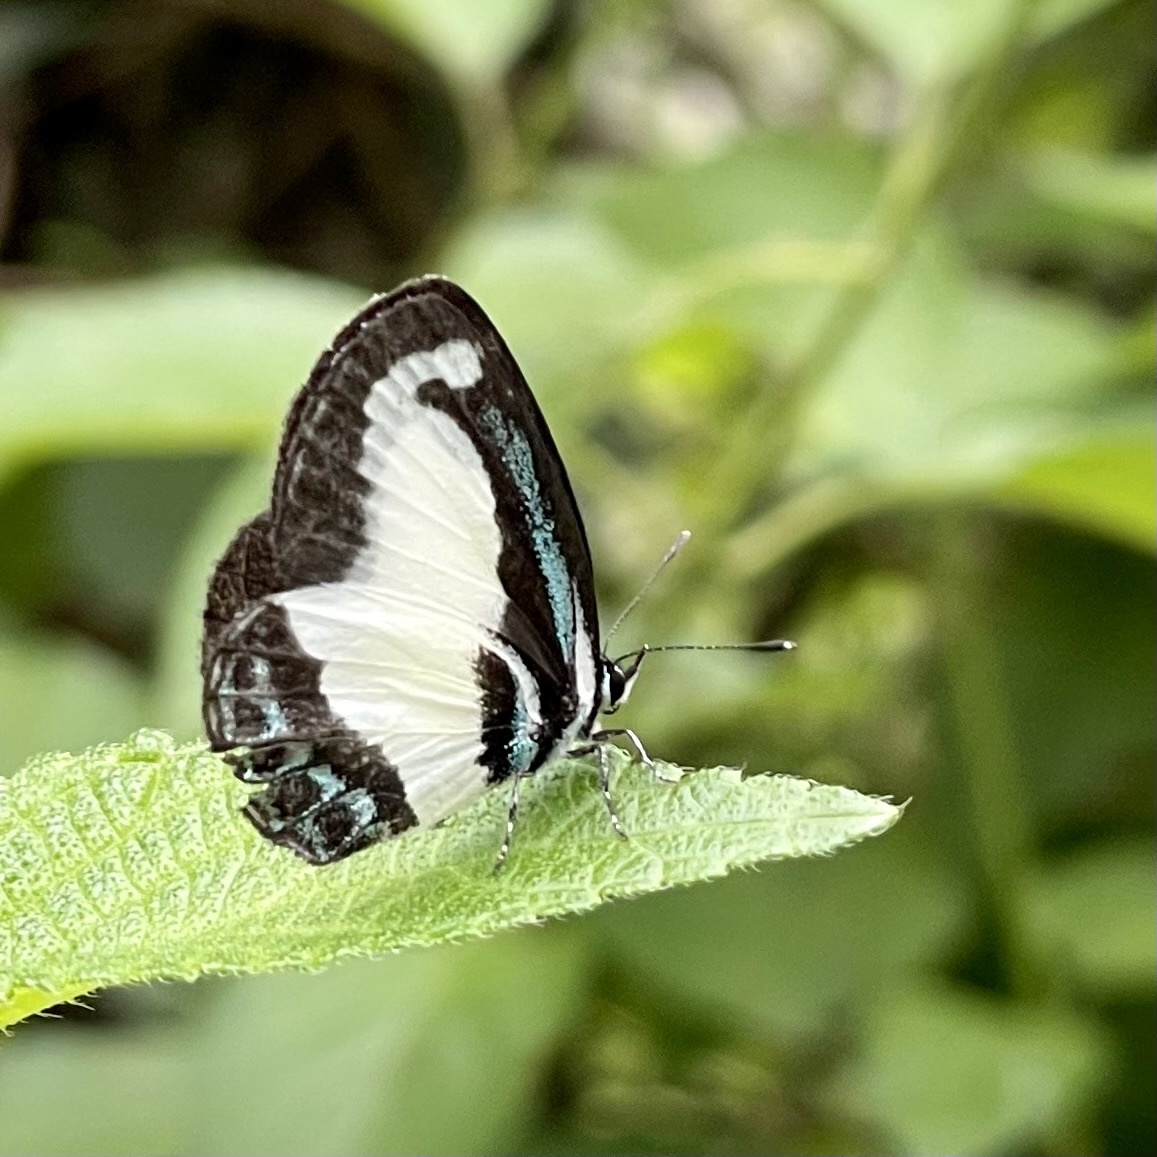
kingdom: Animalia
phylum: Arthropoda
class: Insecta
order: Lepidoptera
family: Lycaenidae
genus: Psychonotis
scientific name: Psychonotis caelius
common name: Small green banded blue
